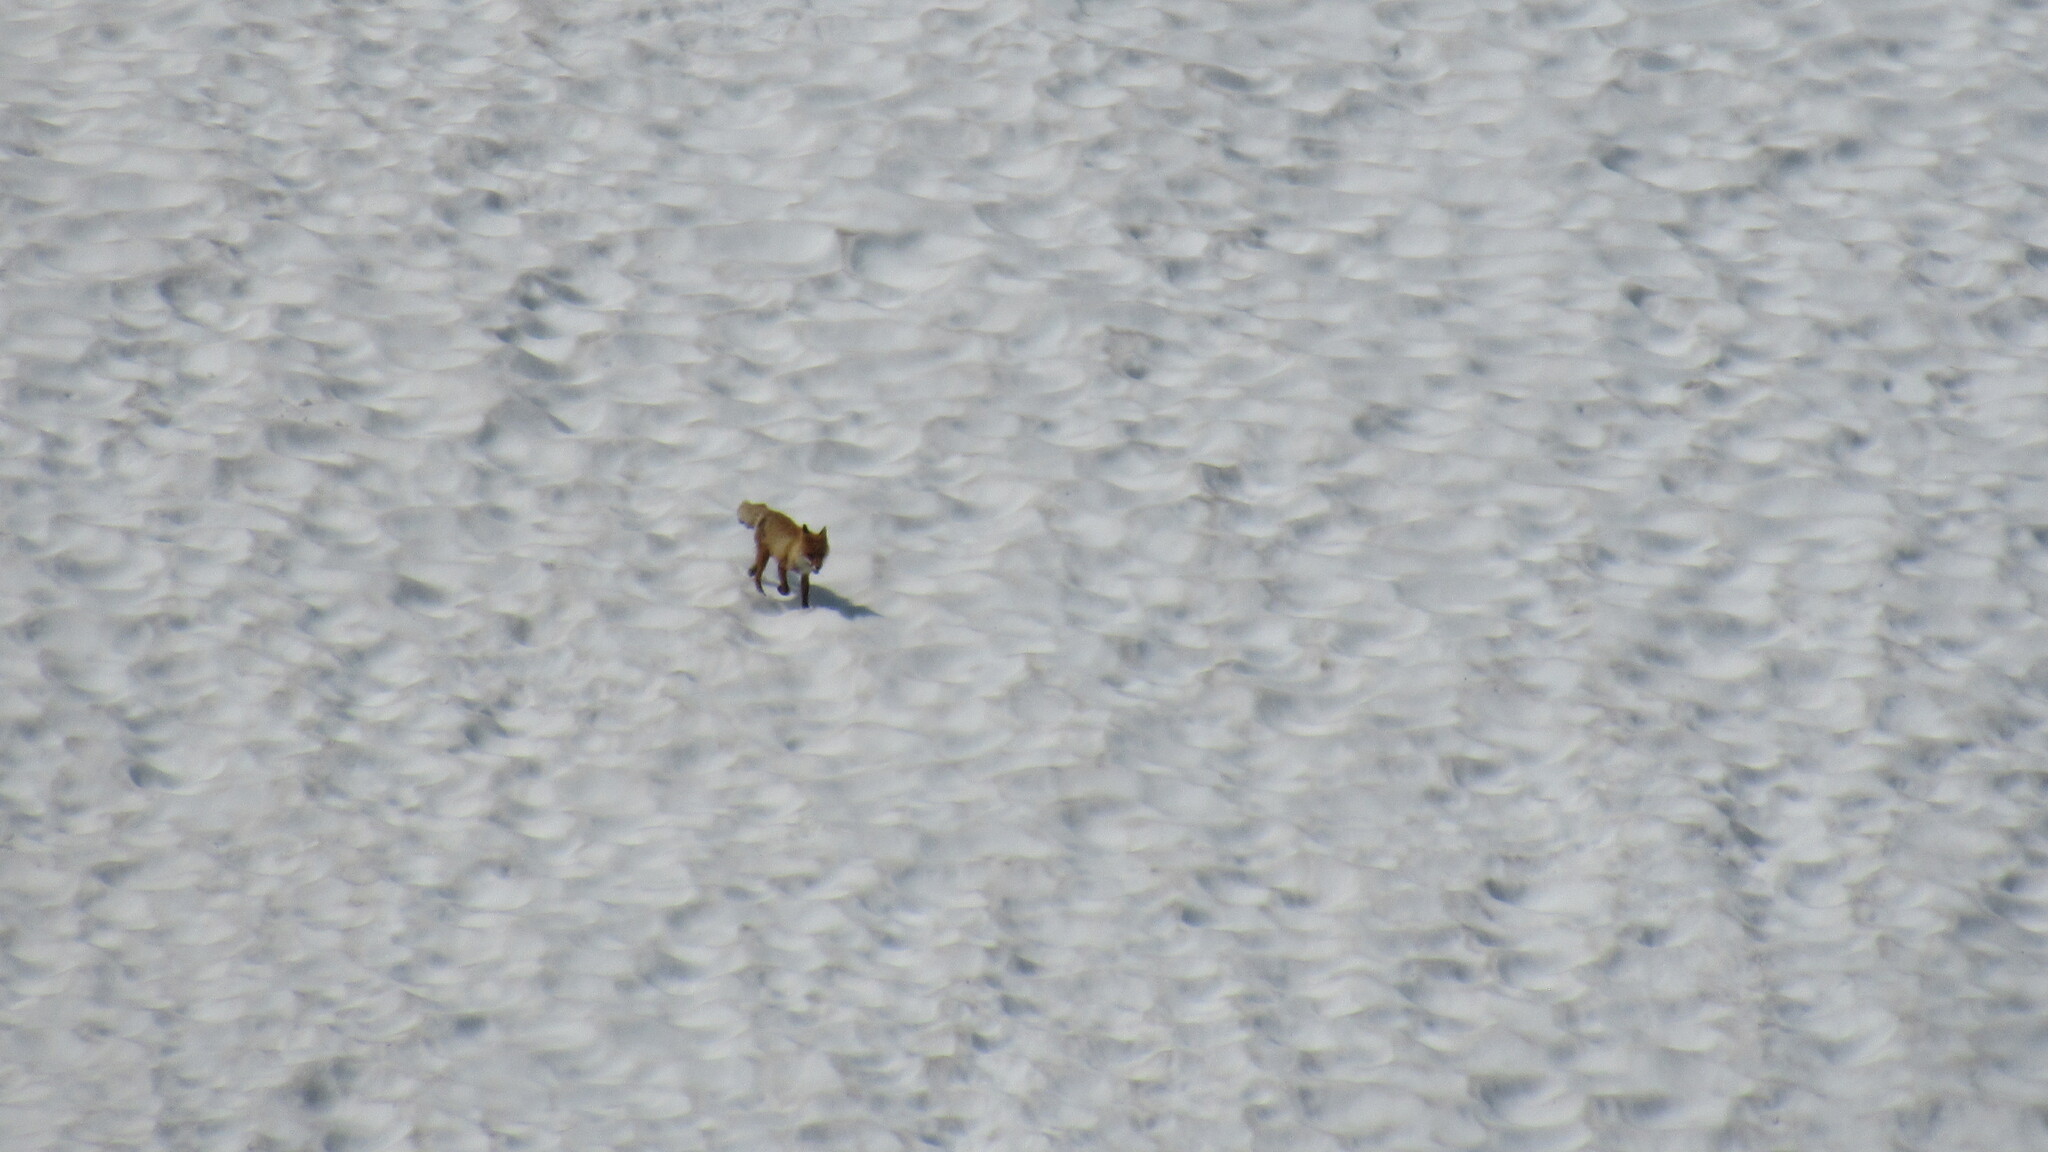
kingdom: Animalia
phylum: Chordata
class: Mammalia
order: Carnivora
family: Canidae
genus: Vulpes
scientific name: Vulpes vulpes
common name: Red fox
